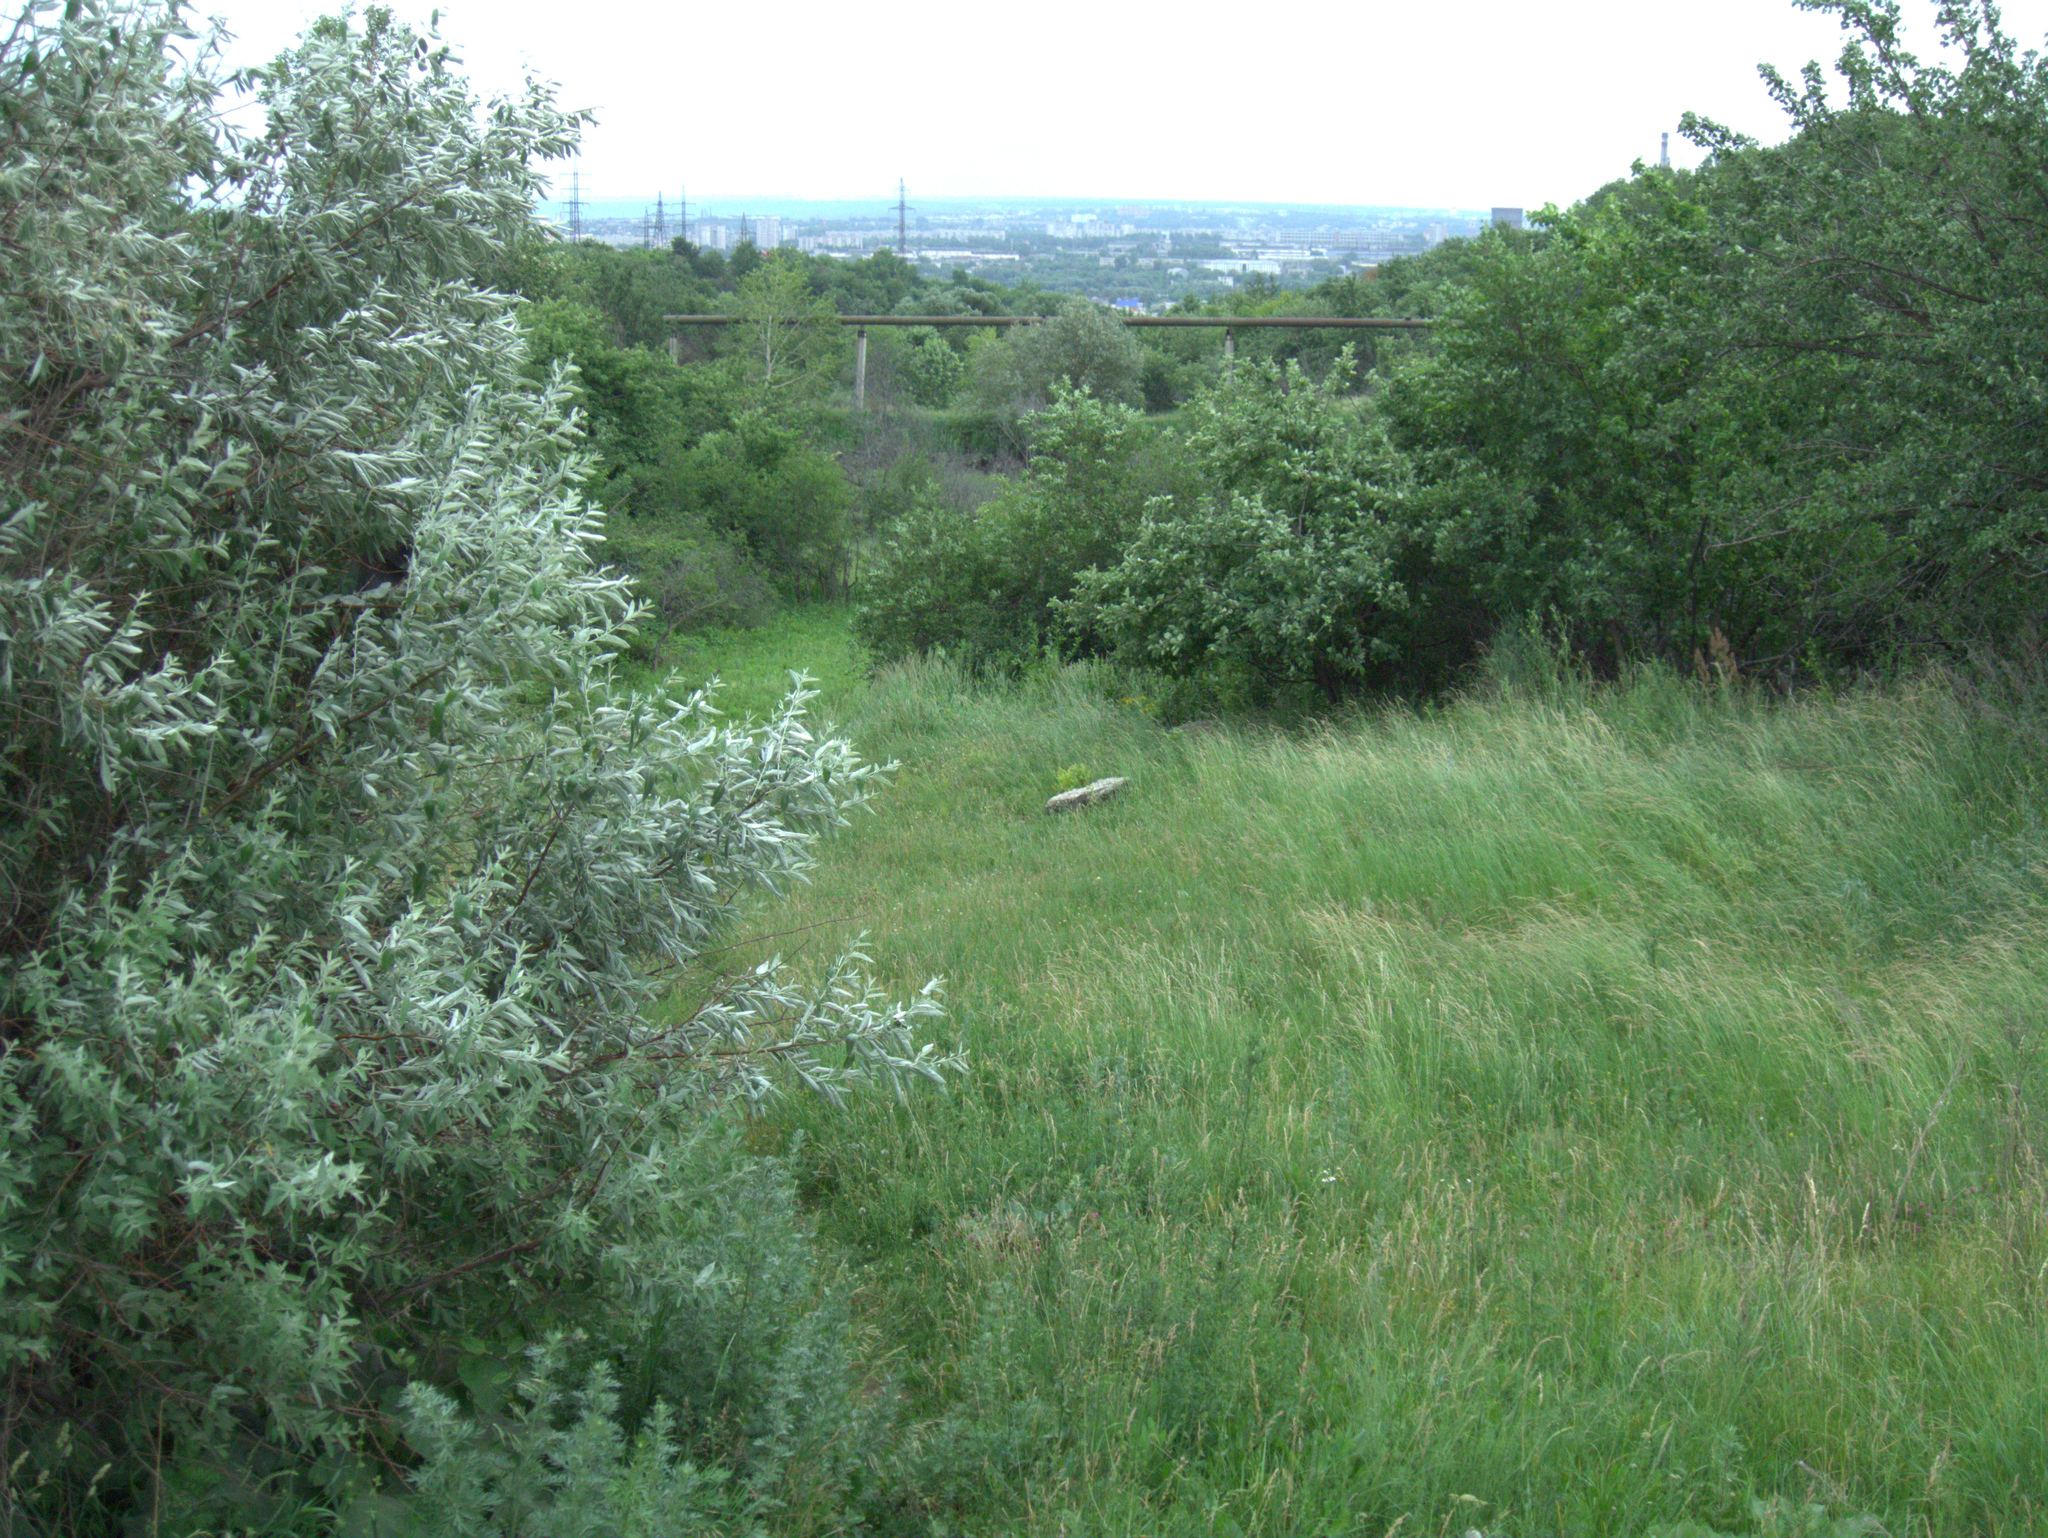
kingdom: Plantae
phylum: Tracheophyta
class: Magnoliopsida
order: Rosales
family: Elaeagnaceae
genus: Elaeagnus
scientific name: Elaeagnus angustifolia
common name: Russian olive
